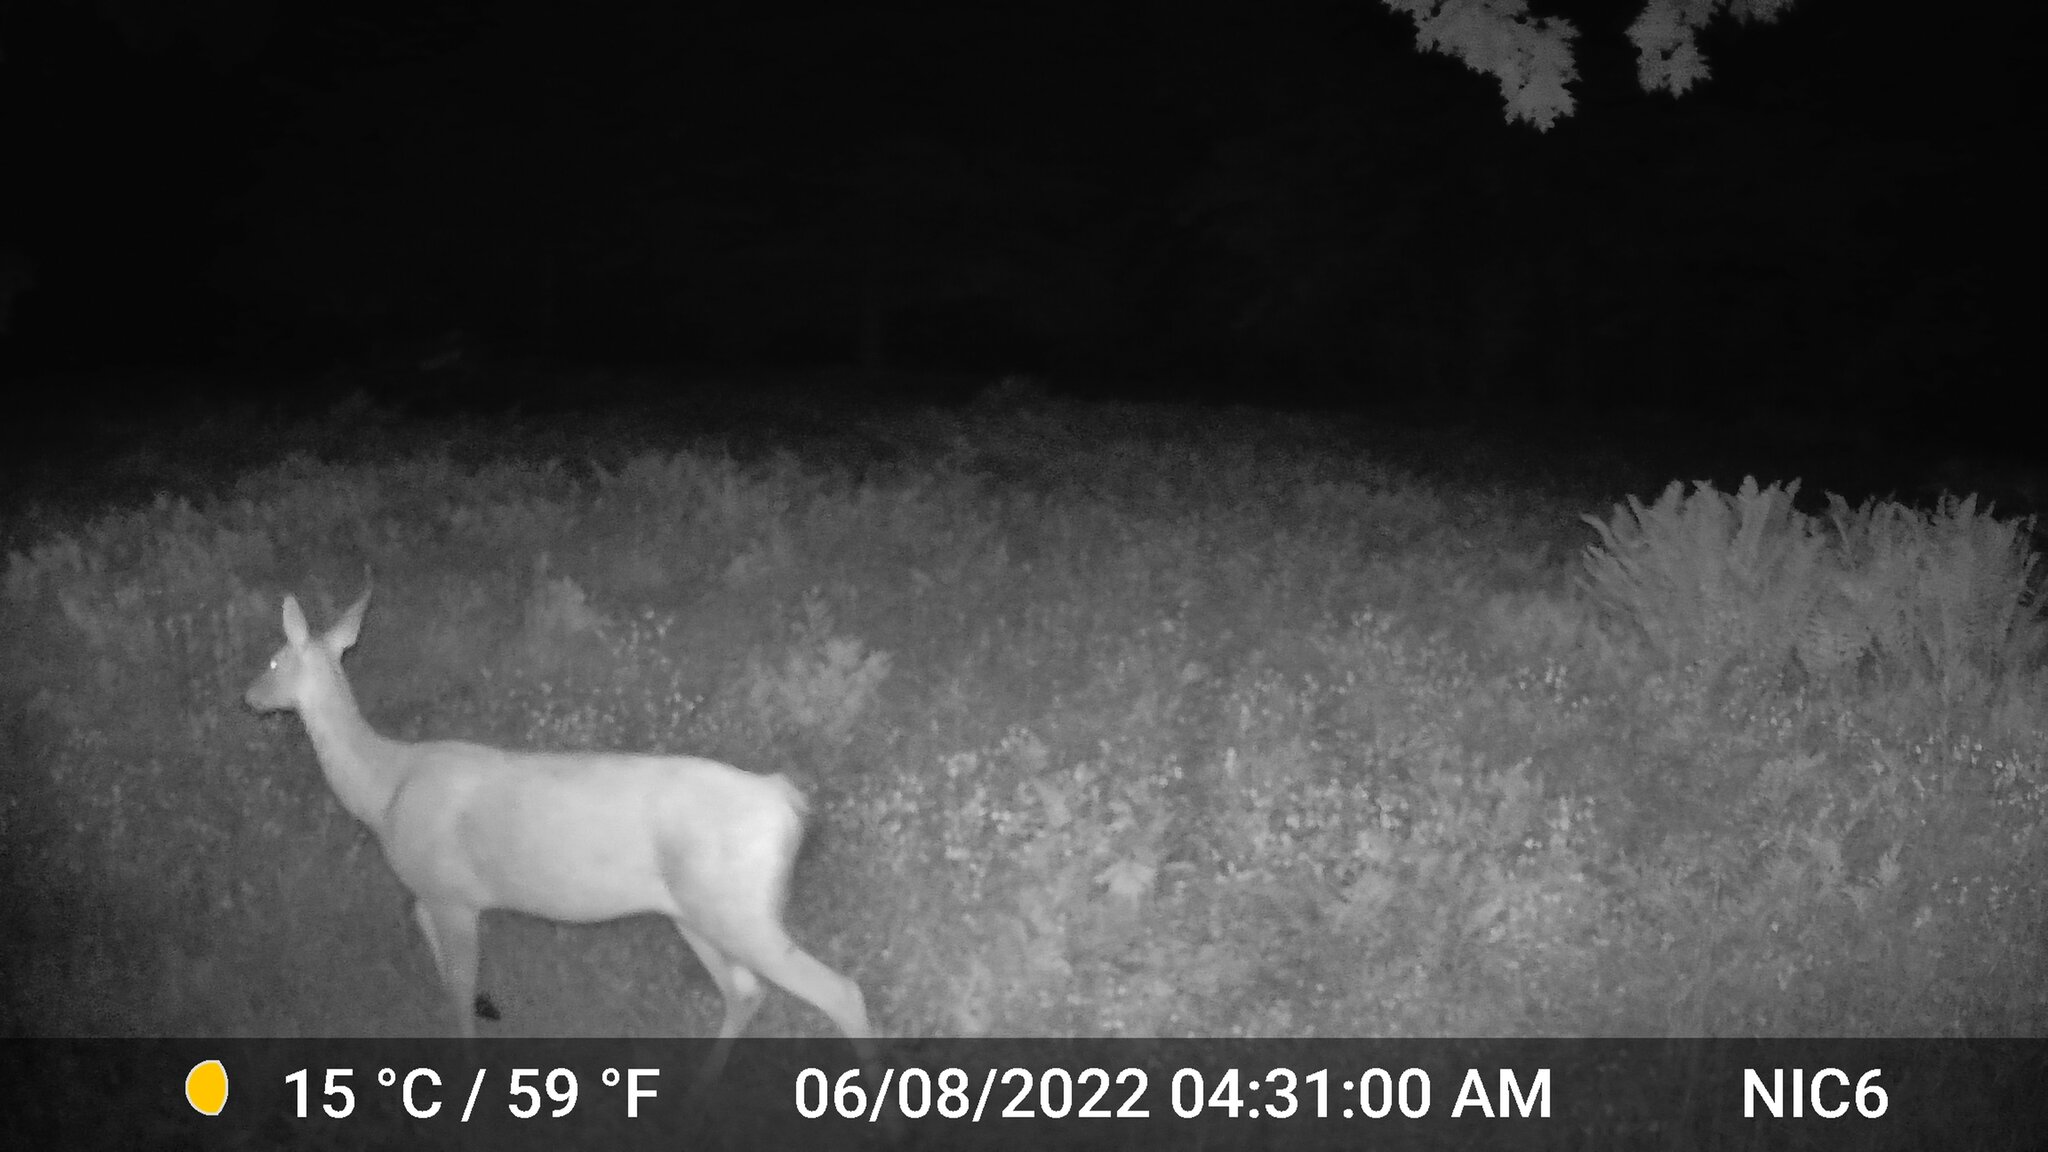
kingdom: Animalia
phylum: Chordata
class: Mammalia
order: Artiodactyla
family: Cervidae
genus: Odocoileus
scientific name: Odocoileus virginianus
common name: White-tailed deer
